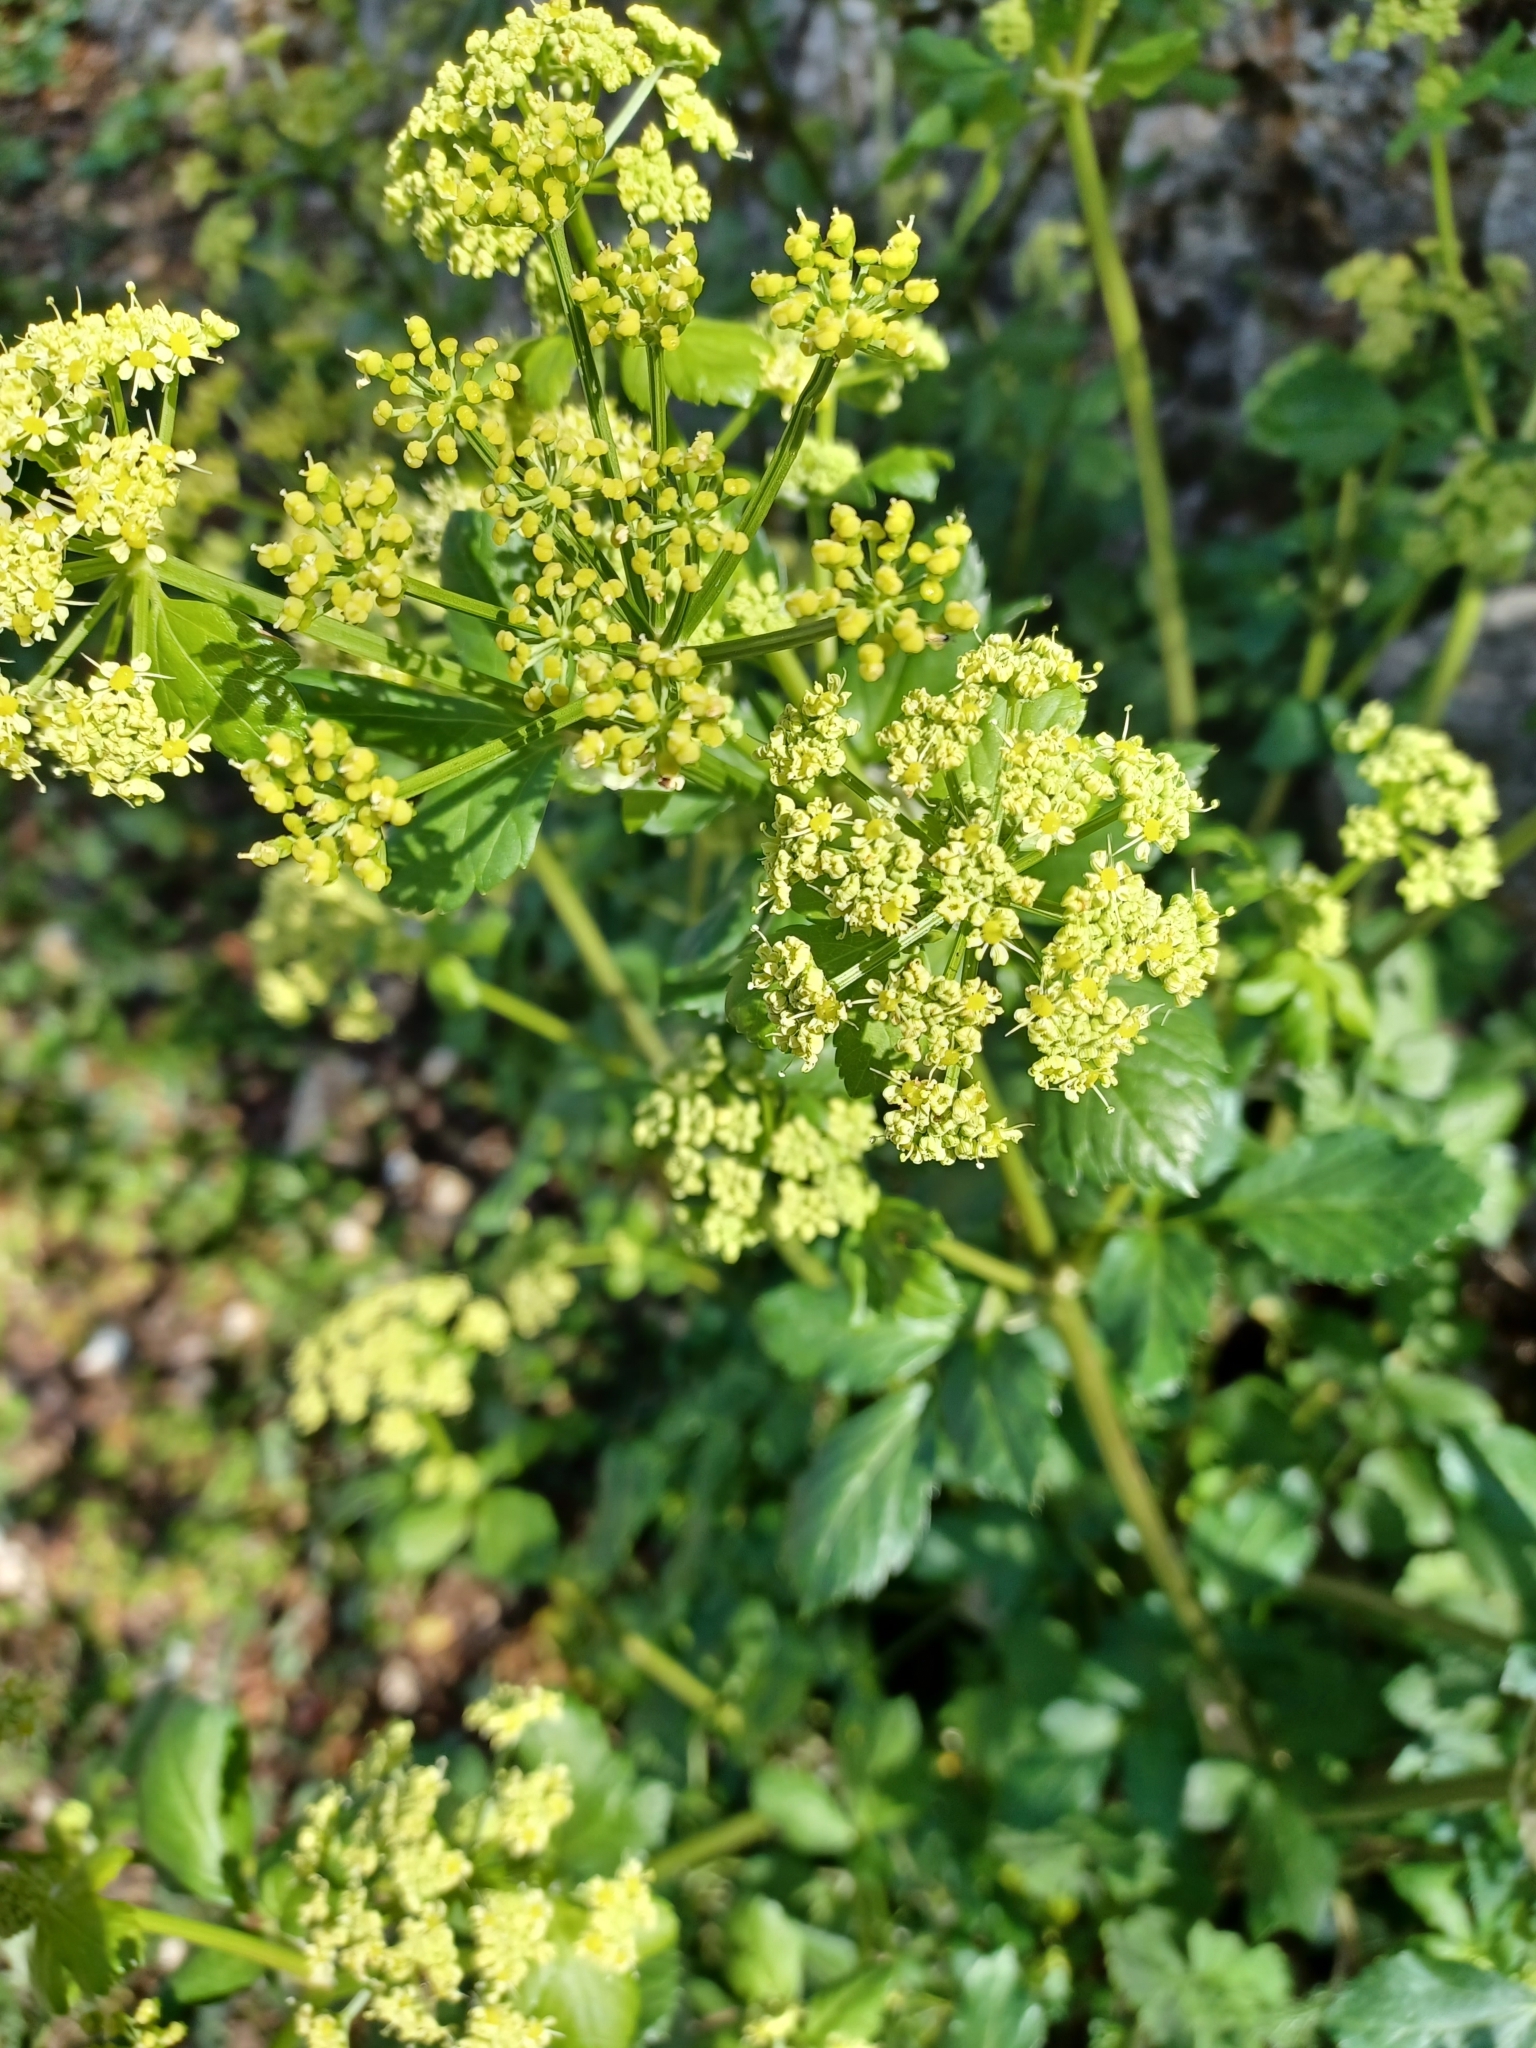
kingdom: Plantae
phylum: Tracheophyta
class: Magnoliopsida
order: Apiales
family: Apiaceae
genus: Smyrnium
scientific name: Smyrnium olusatrum
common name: Alexanders
